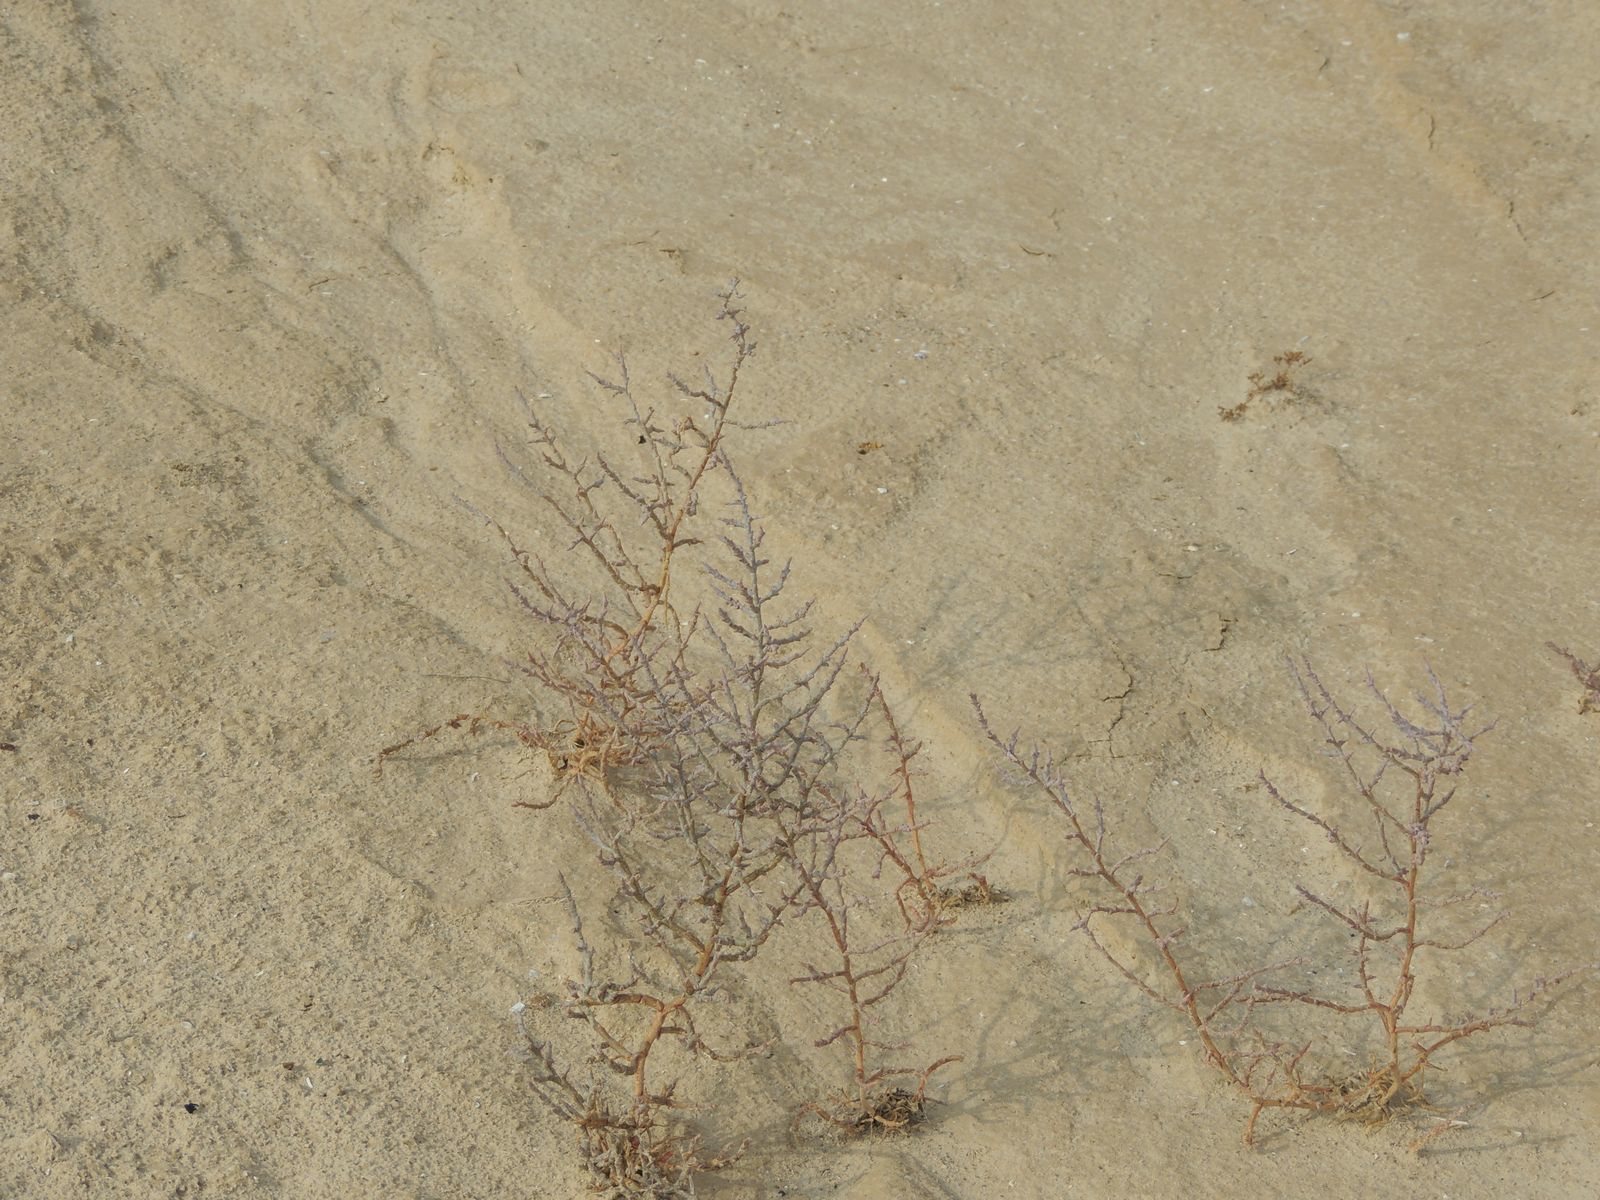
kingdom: Plantae
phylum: Tracheophyta
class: Magnoliopsida
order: Caryophyllales
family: Amaranthaceae
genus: Ofaiston
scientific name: Ofaiston monandrum
